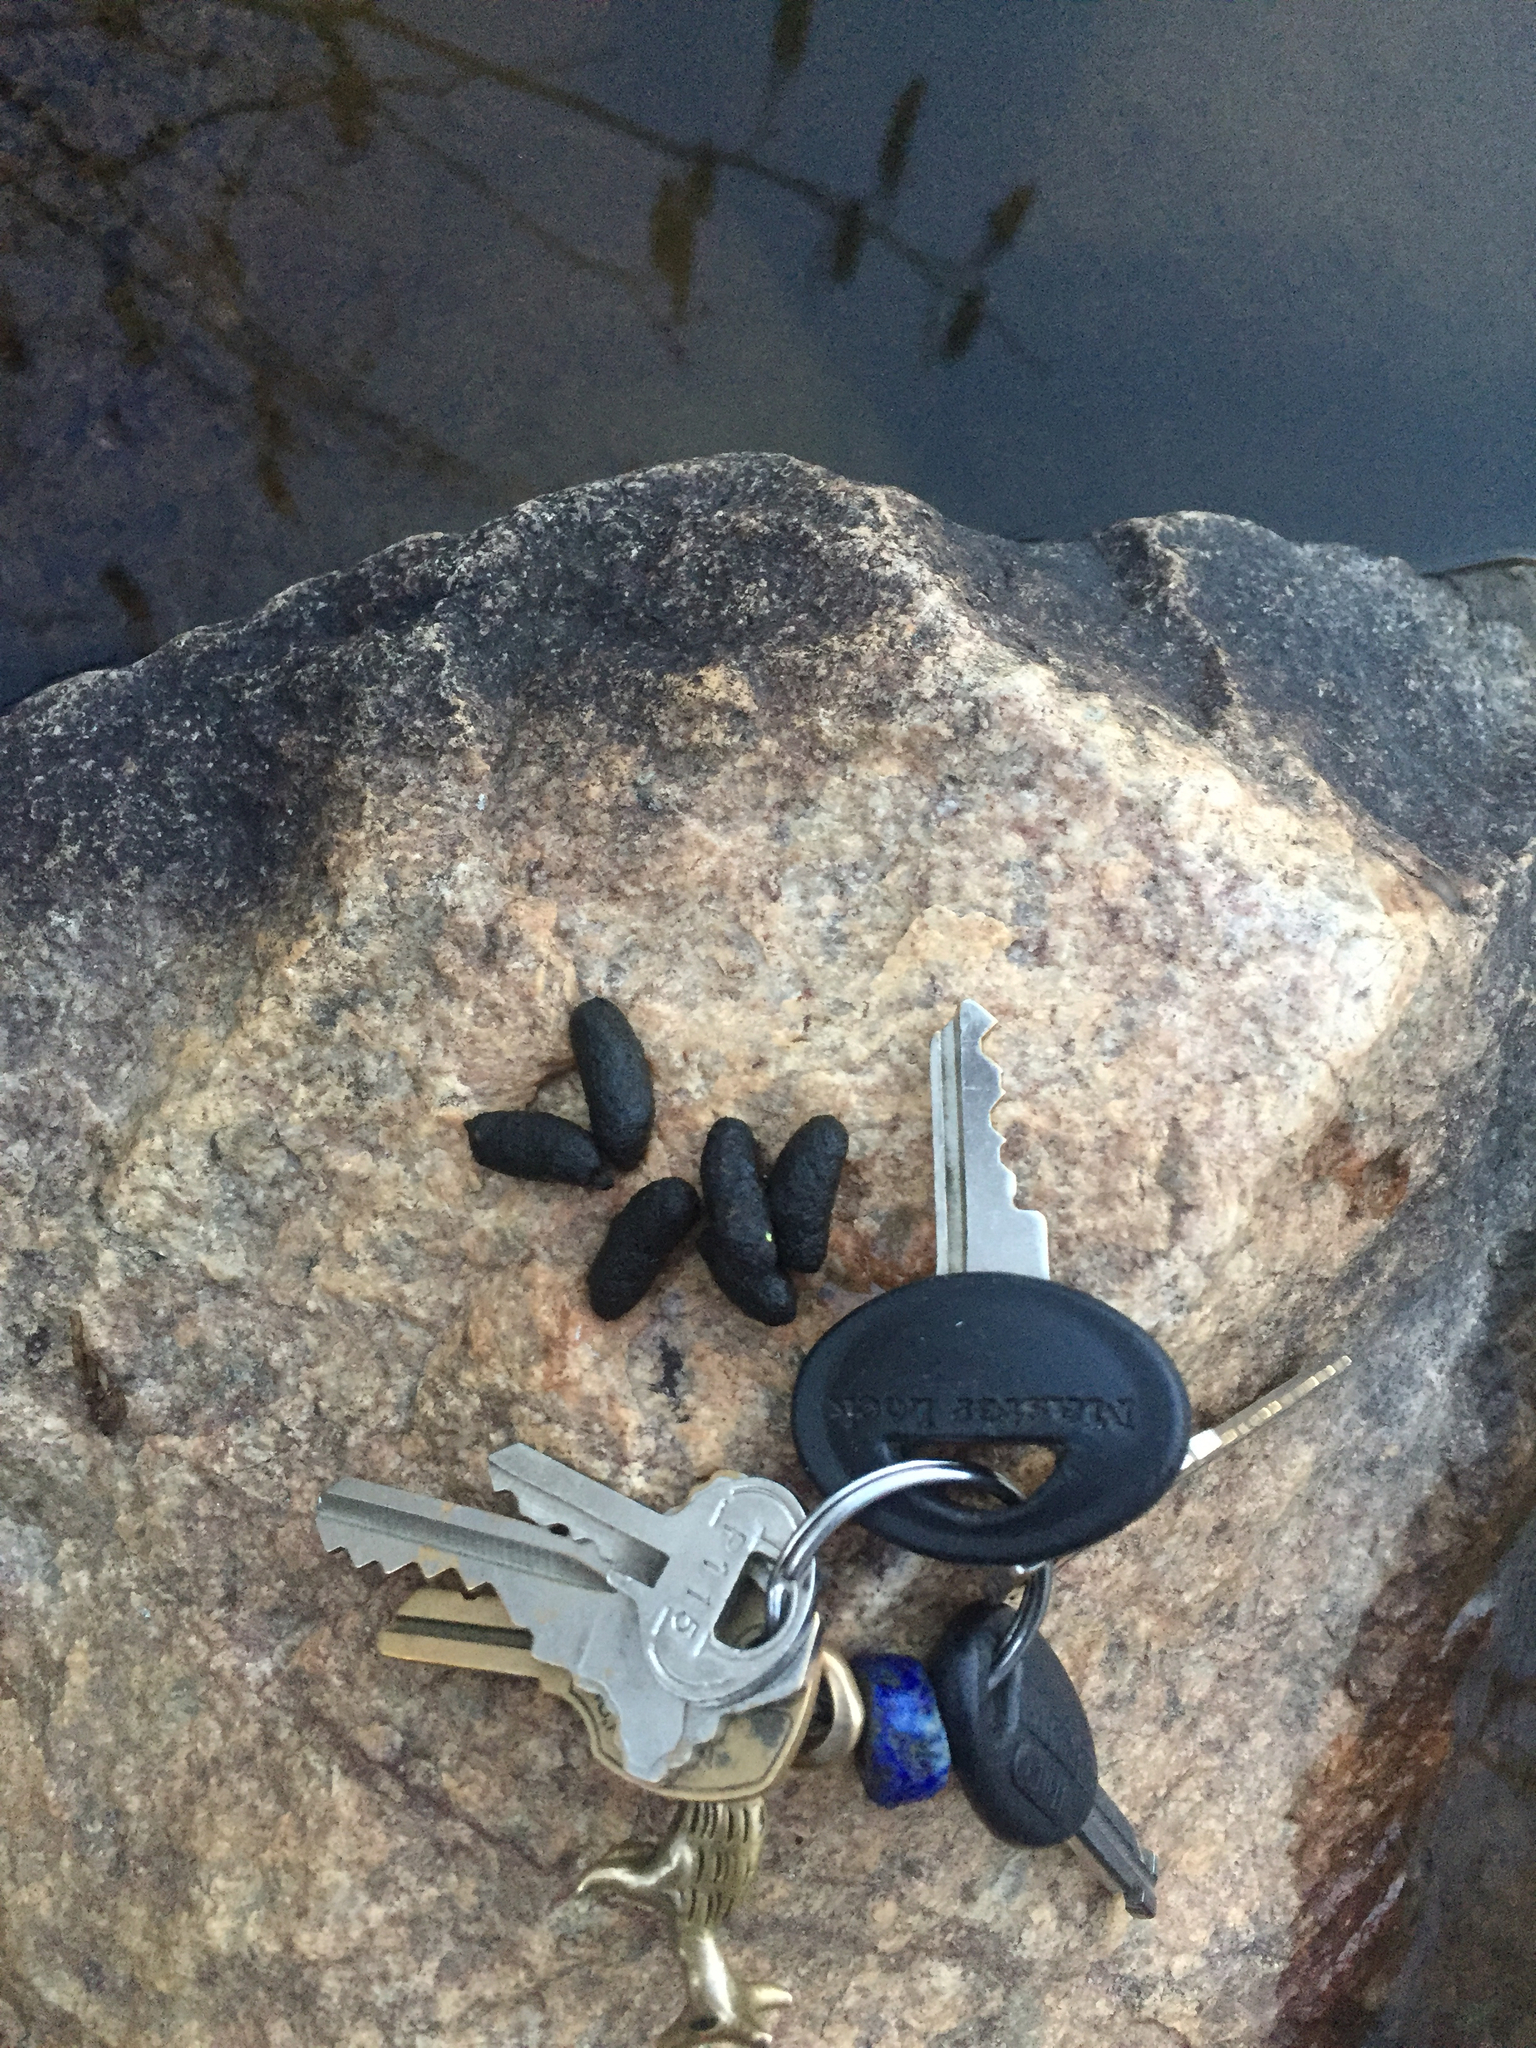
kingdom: Animalia
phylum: Chordata
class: Mammalia
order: Rodentia
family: Cricetidae
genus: Ondatra
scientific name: Ondatra zibethicus
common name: Muskrat
